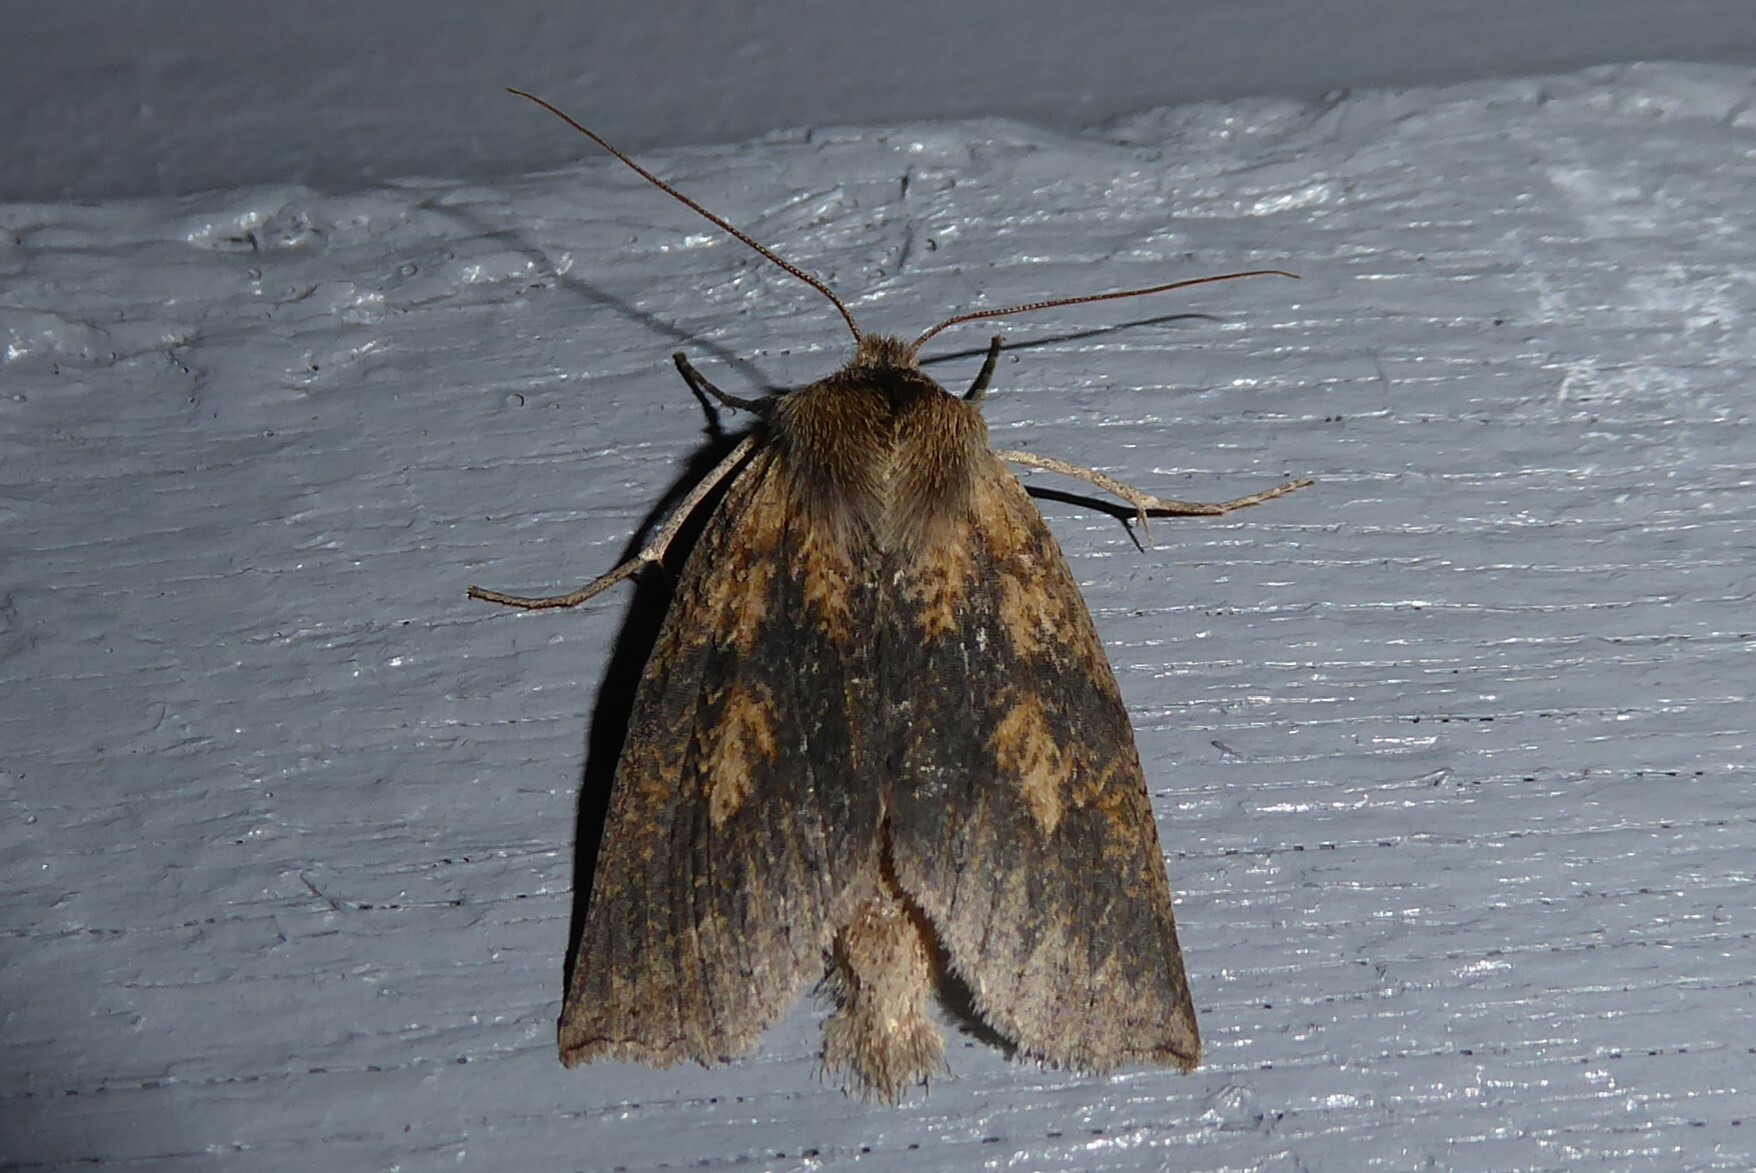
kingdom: Animalia
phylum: Arthropoda
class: Insecta
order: Lepidoptera
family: Geometridae
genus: Declana
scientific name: Declana leptomera
